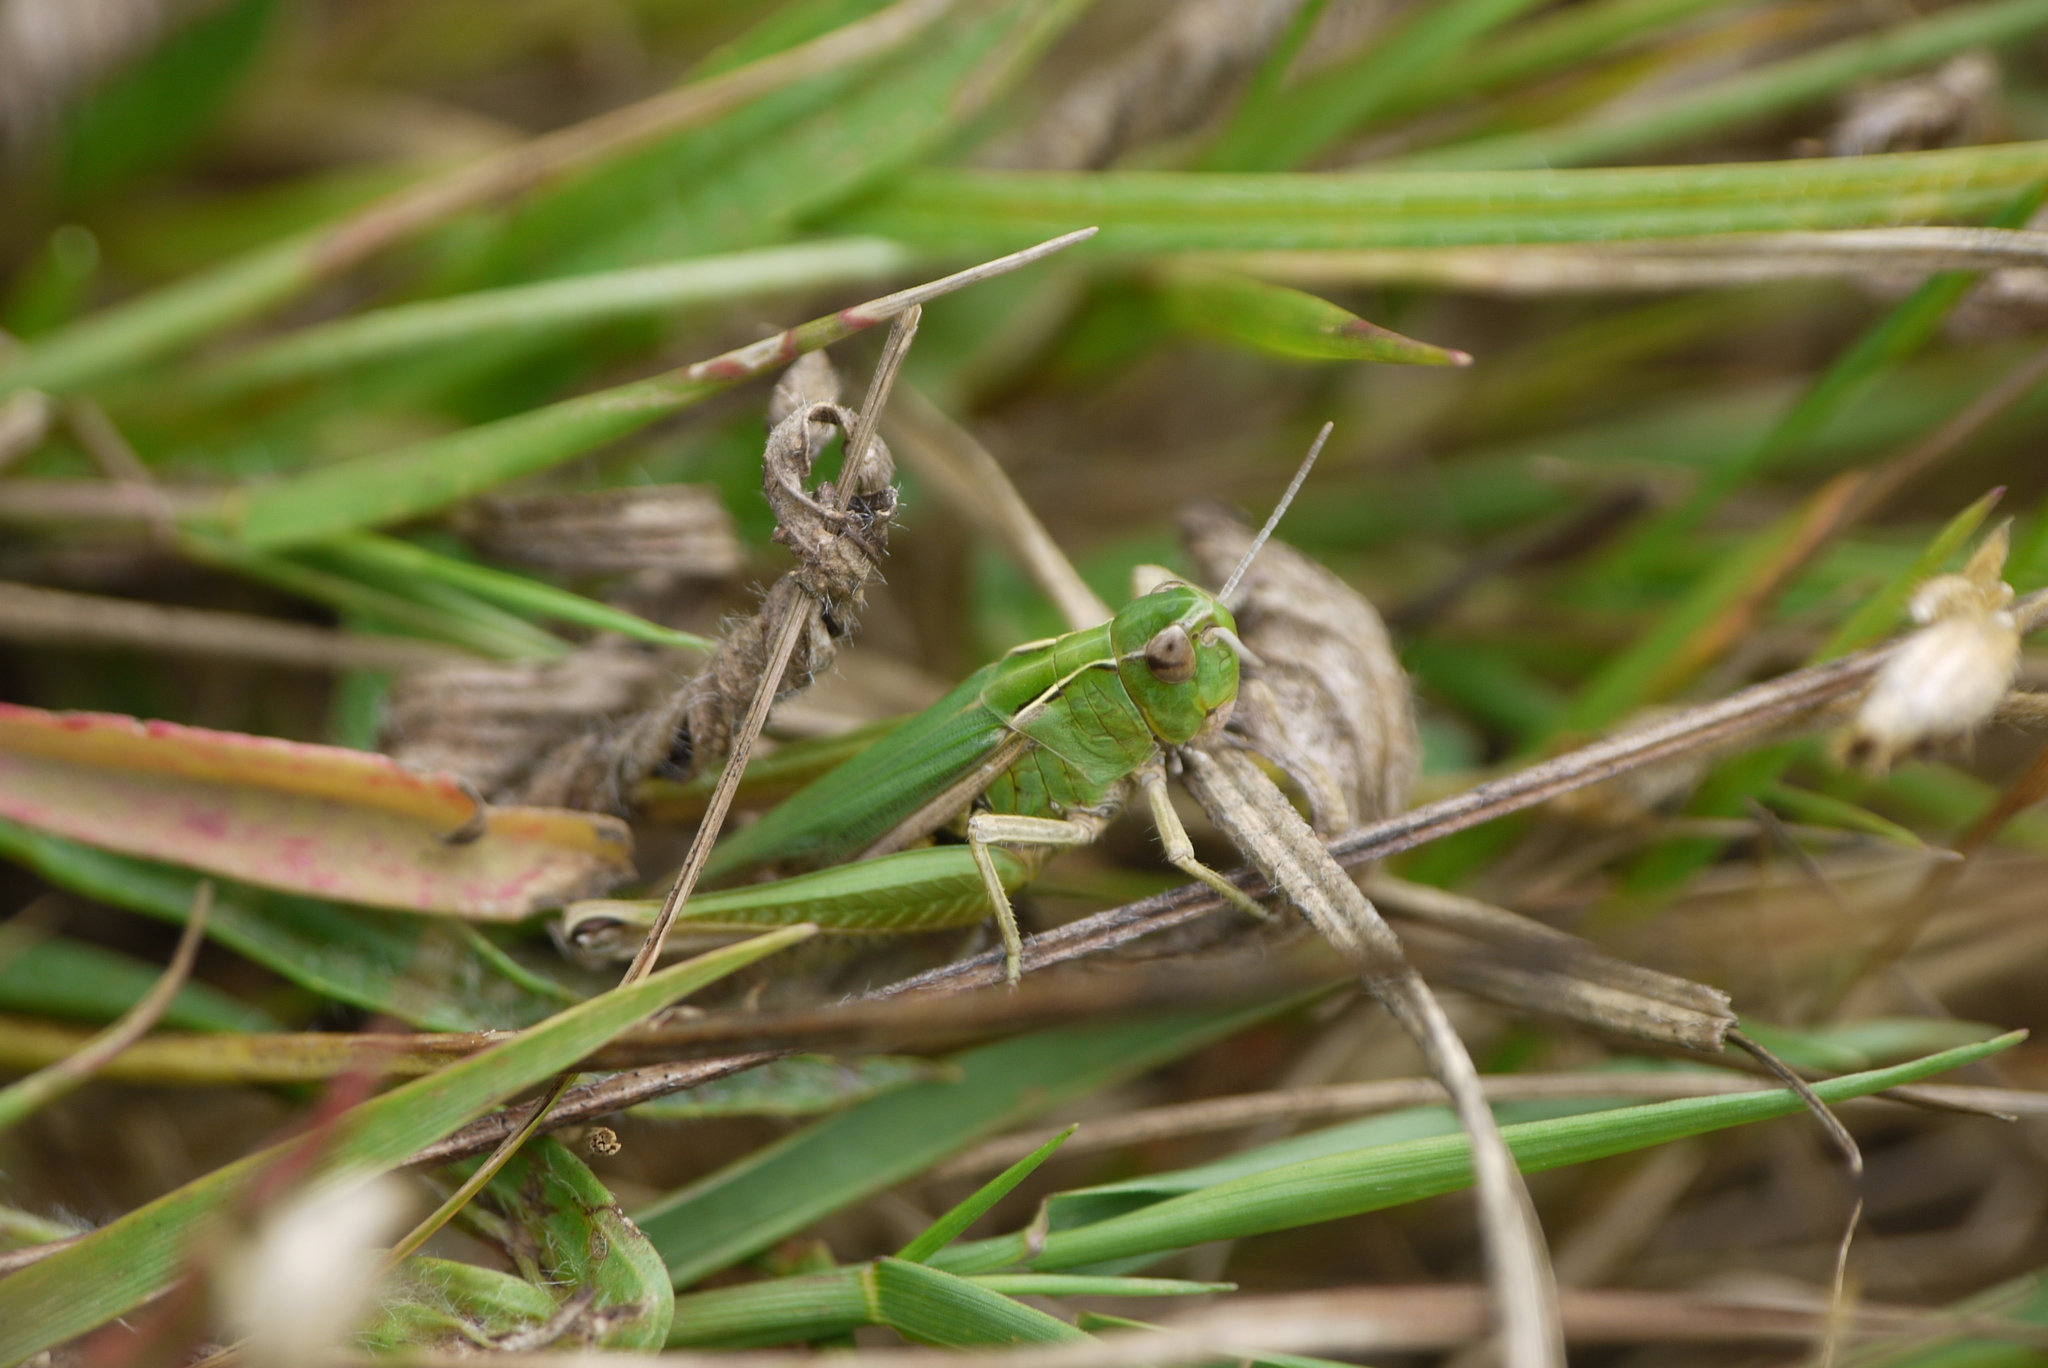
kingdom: Animalia
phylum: Arthropoda
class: Insecta
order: Orthoptera
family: Acrididae
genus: Omocestus
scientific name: Omocestus viridulus
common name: Common green grasshopper
